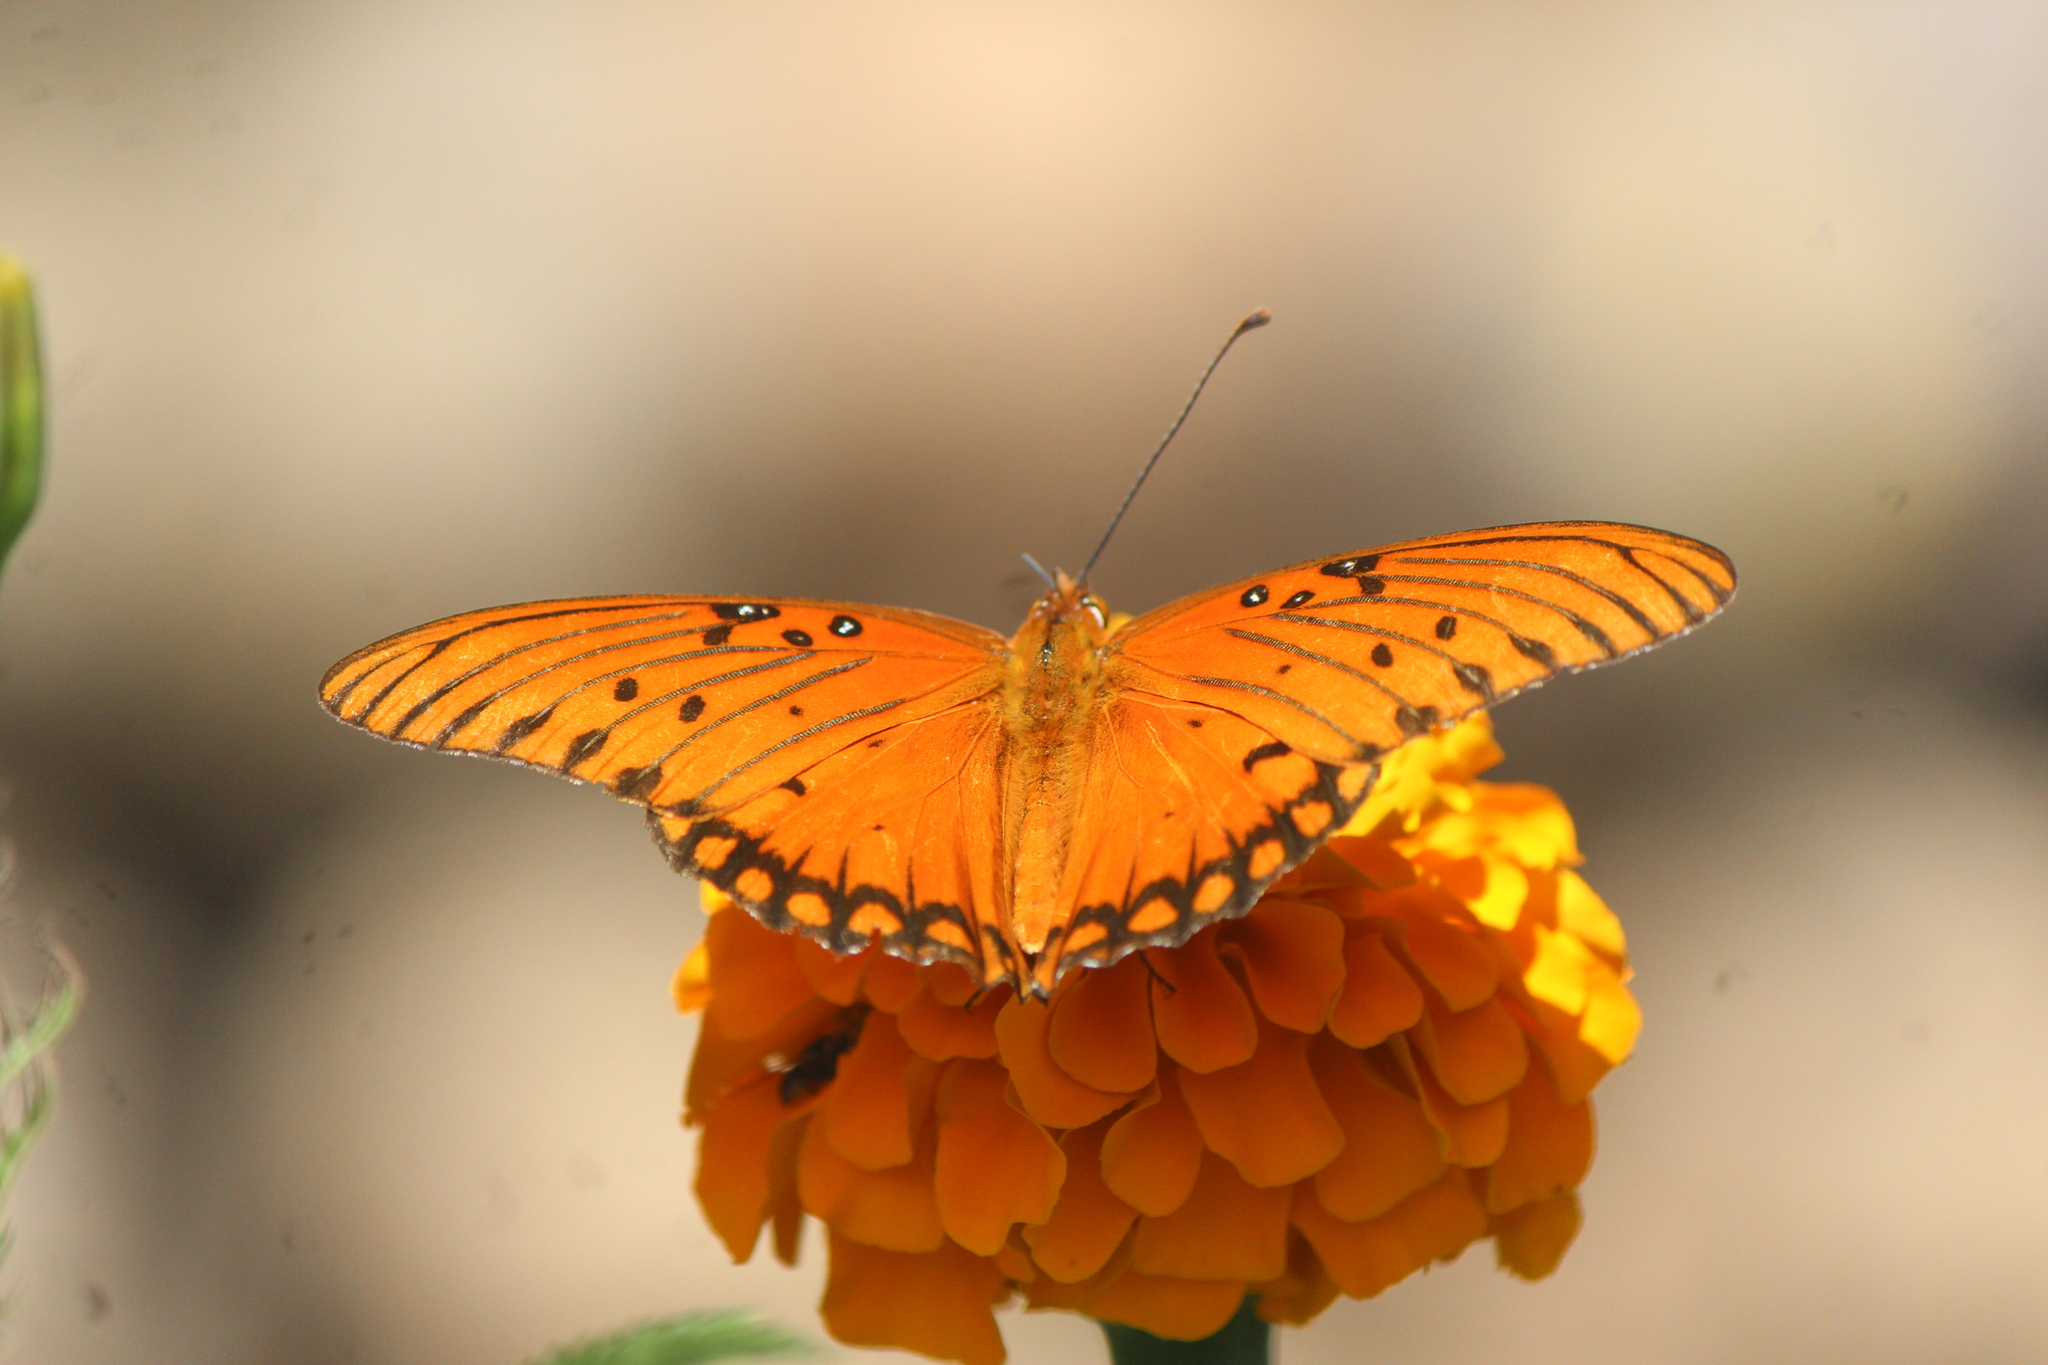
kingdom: Animalia
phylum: Arthropoda
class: Insecta
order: Lepidoptera
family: Nymphalidae
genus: Dione
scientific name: Dione vanillae
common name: Gulf fritillary
